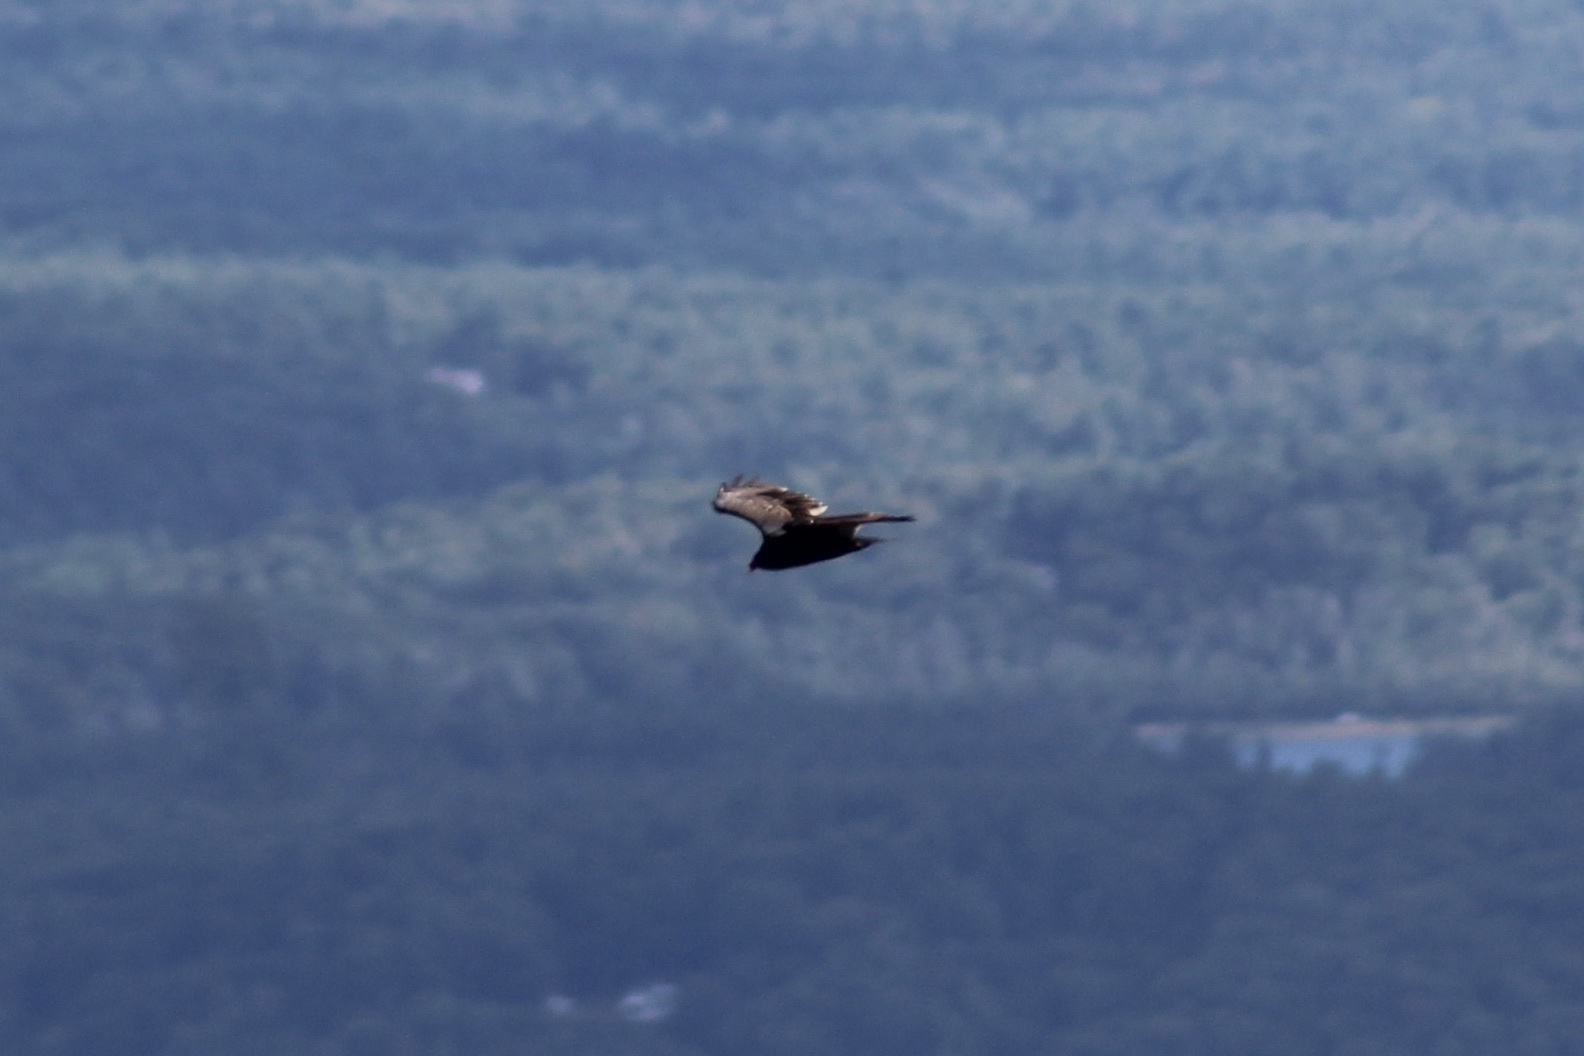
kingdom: Animalia
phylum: Chordata
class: Aves
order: Accipitriformes
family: Cathartidae
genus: Cathartes
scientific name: Cathartes aura
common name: Turkey vulture
